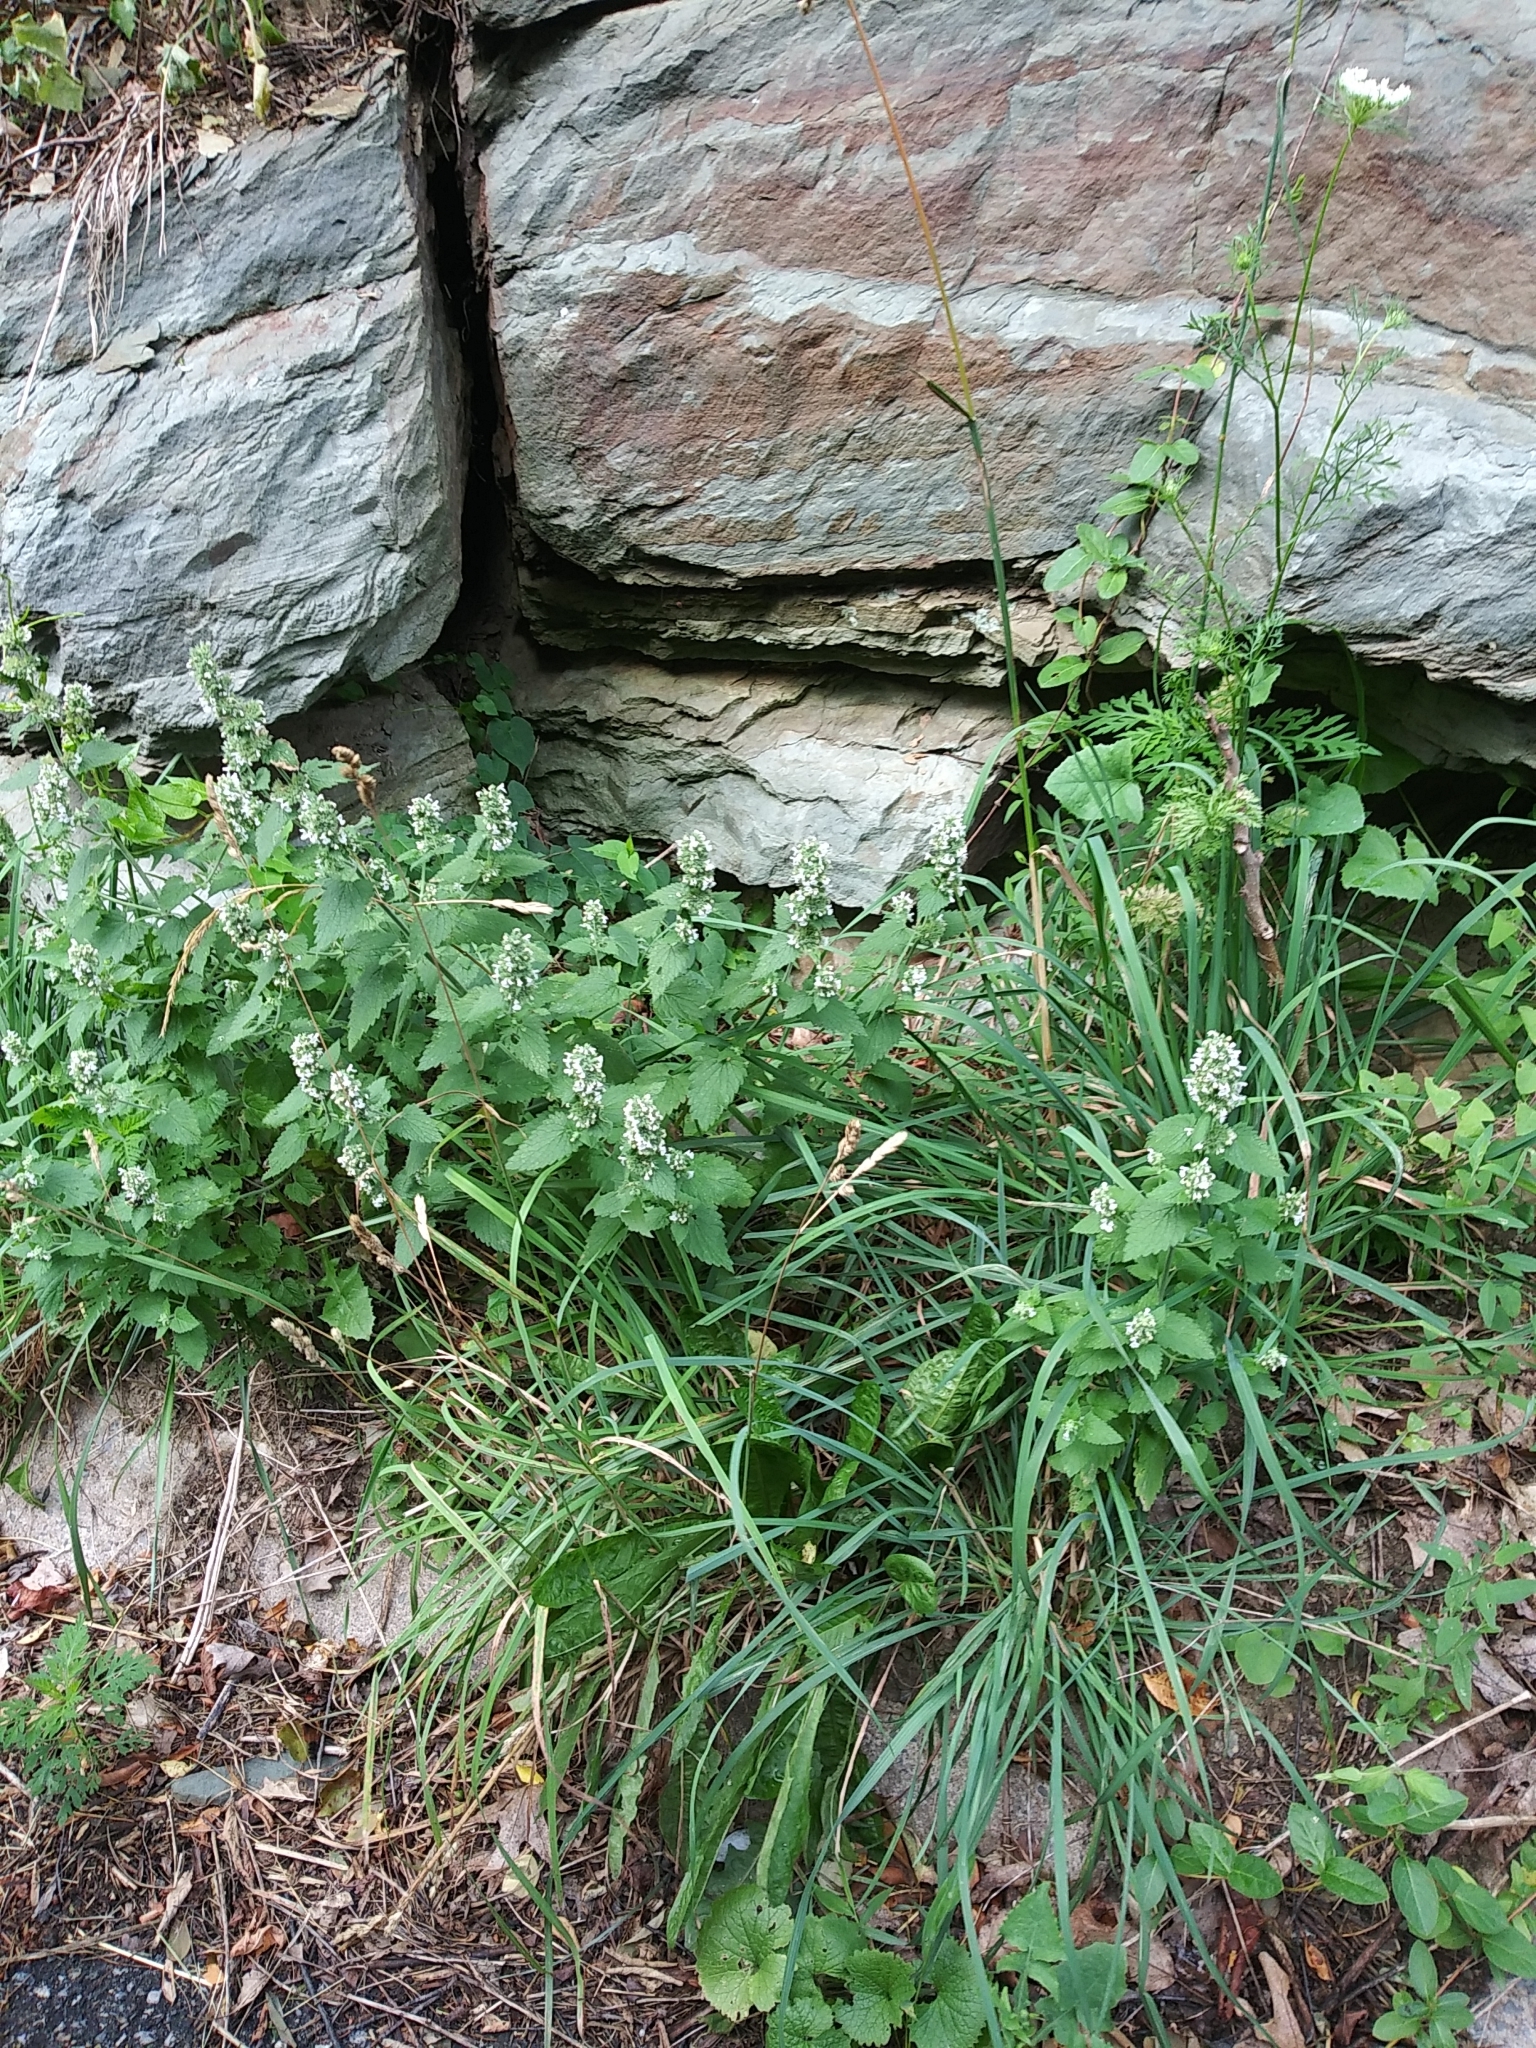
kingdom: Plantae
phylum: Tracheophyta
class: Magnoliopsida
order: Lamiales
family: Lamiaceae
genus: Nepeta
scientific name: Nepeta cataria
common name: Catnip
